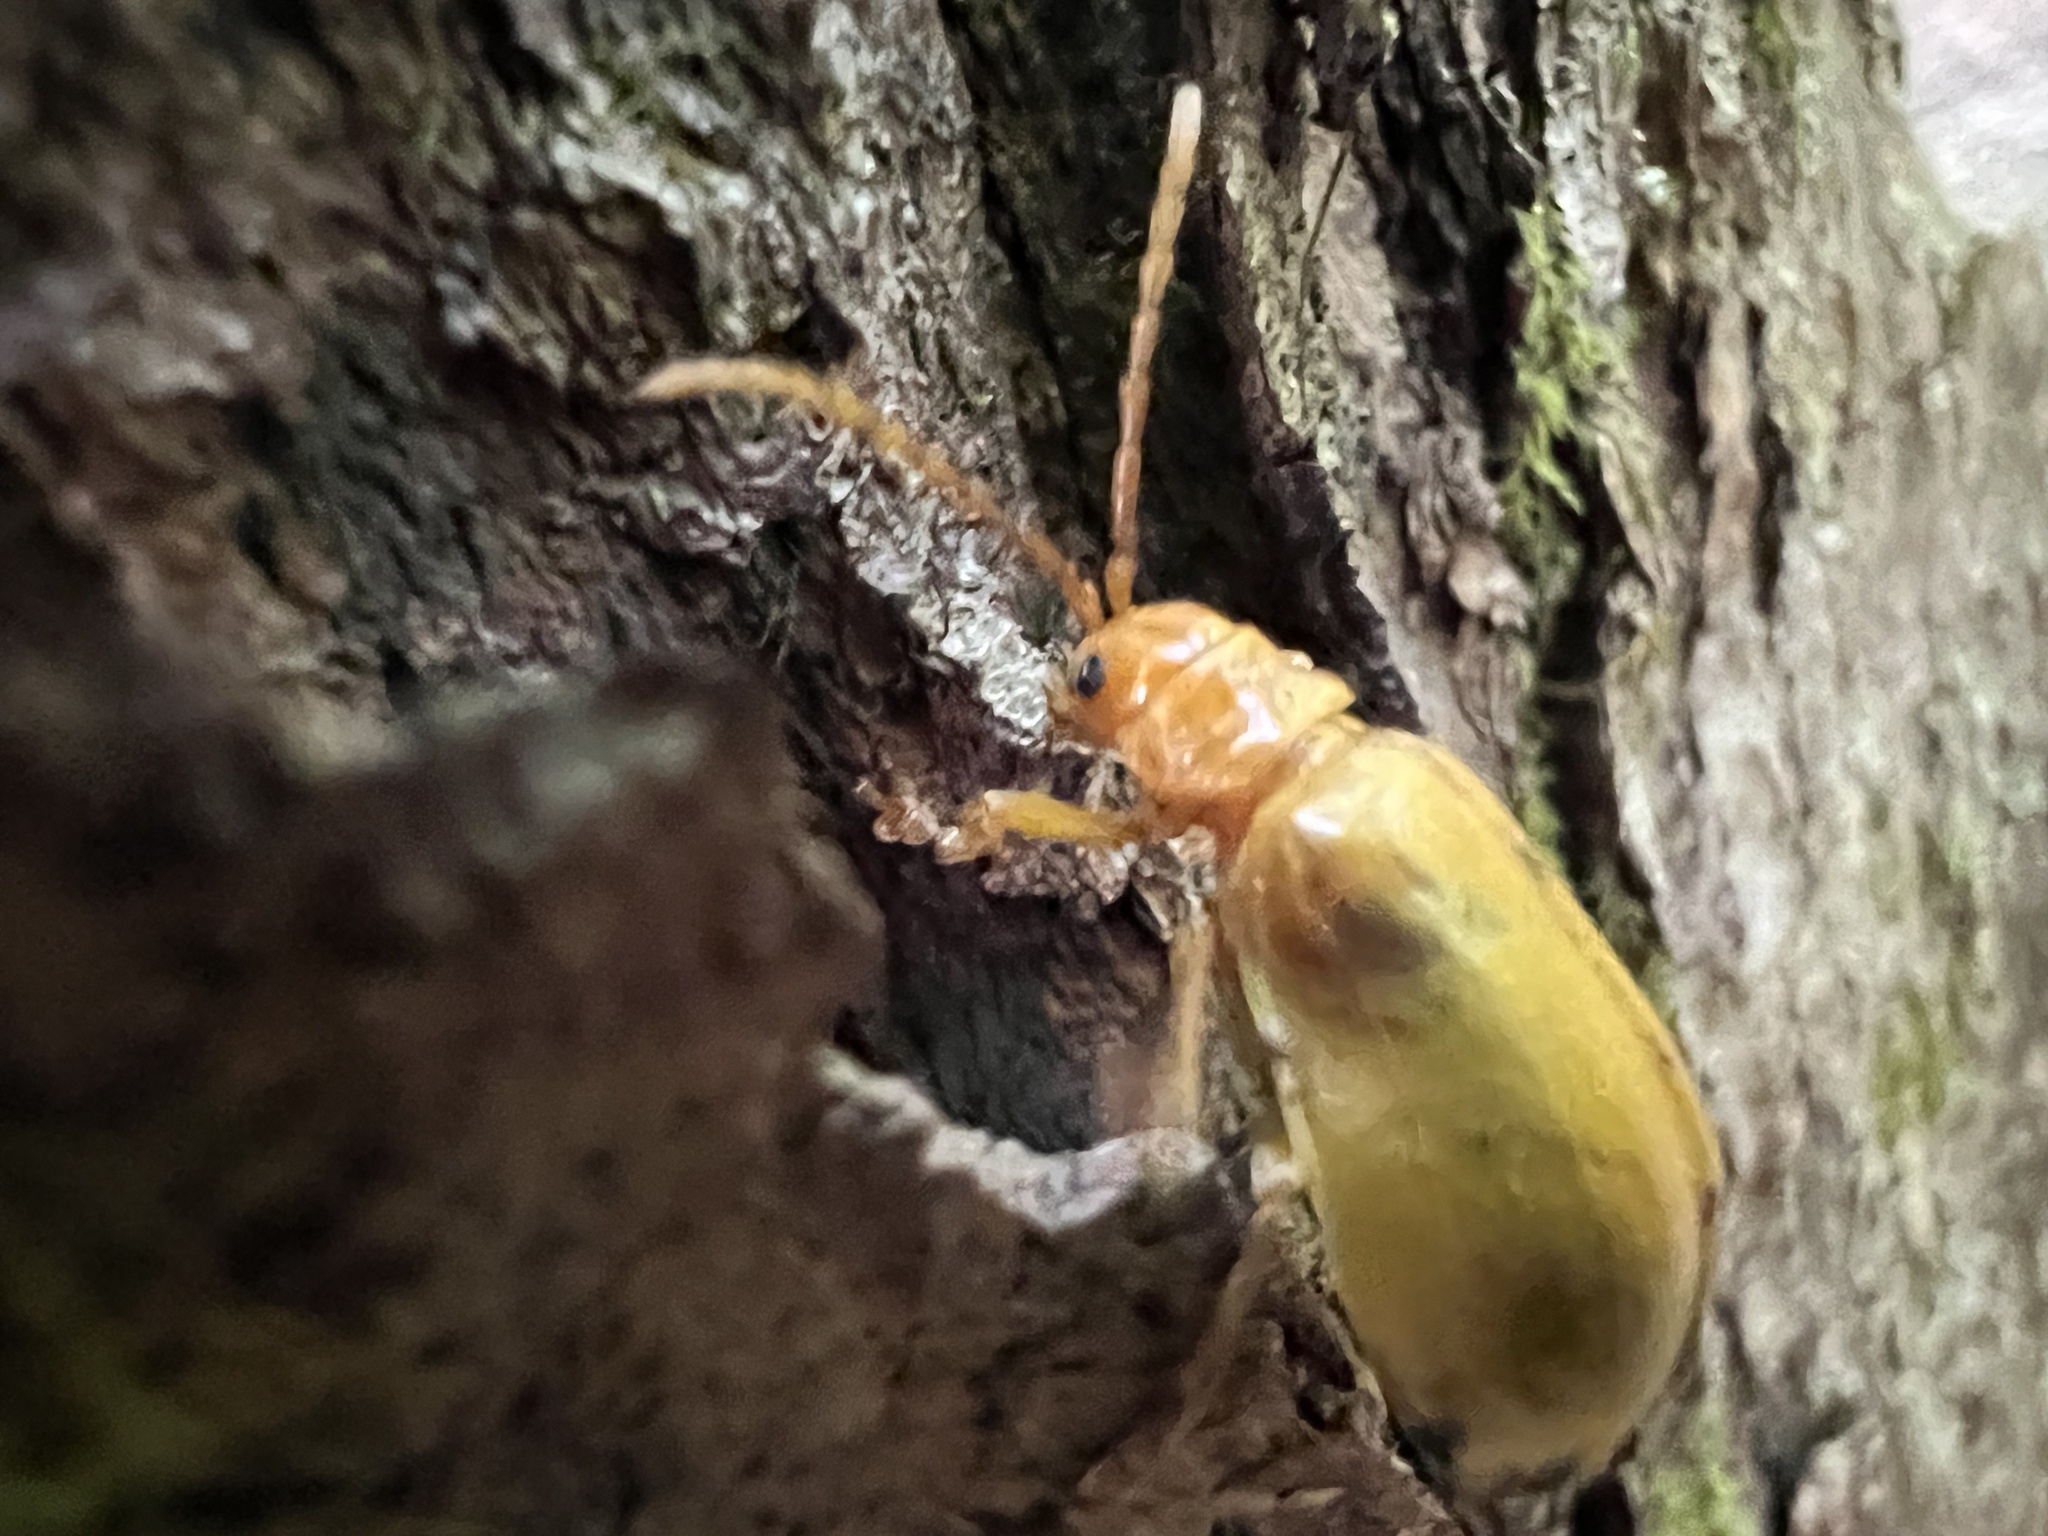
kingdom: Animalia
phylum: Arthropoda
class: Insecta
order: Coleoptera
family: Chrysomelidae
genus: Monocesta
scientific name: Monocesta coryli
